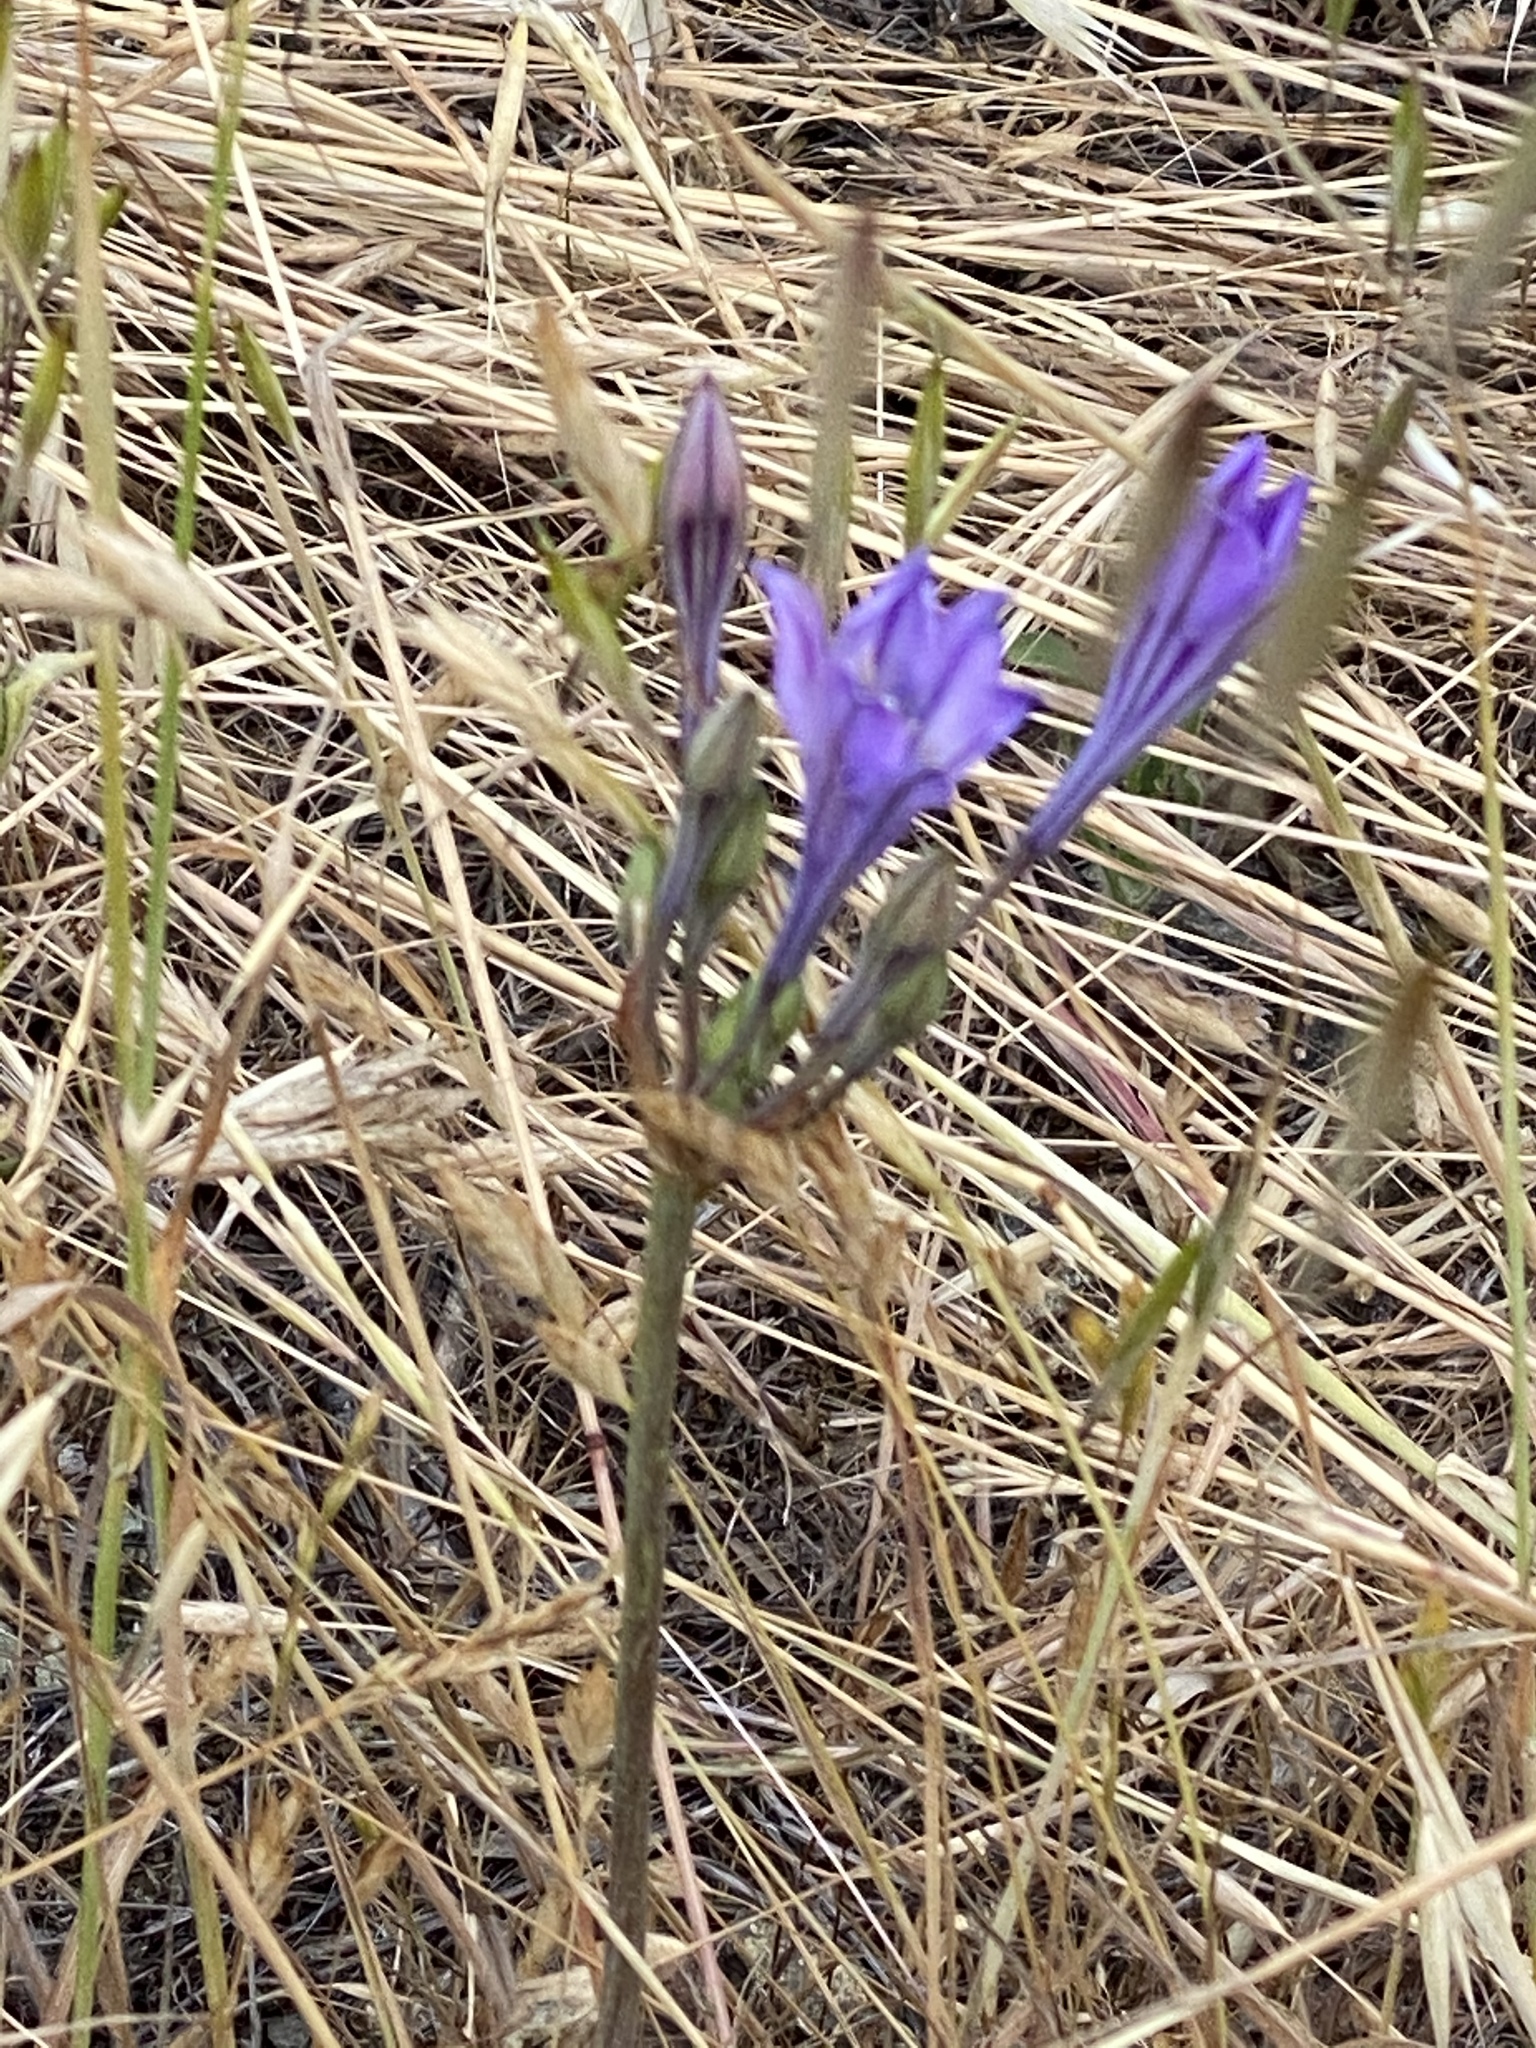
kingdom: Plantae
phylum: Tracheophyta
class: Liliopsida
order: Asparagales
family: Asparagaceae
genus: Triteleia
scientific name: Triteleia laxa
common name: Triplet-lily
